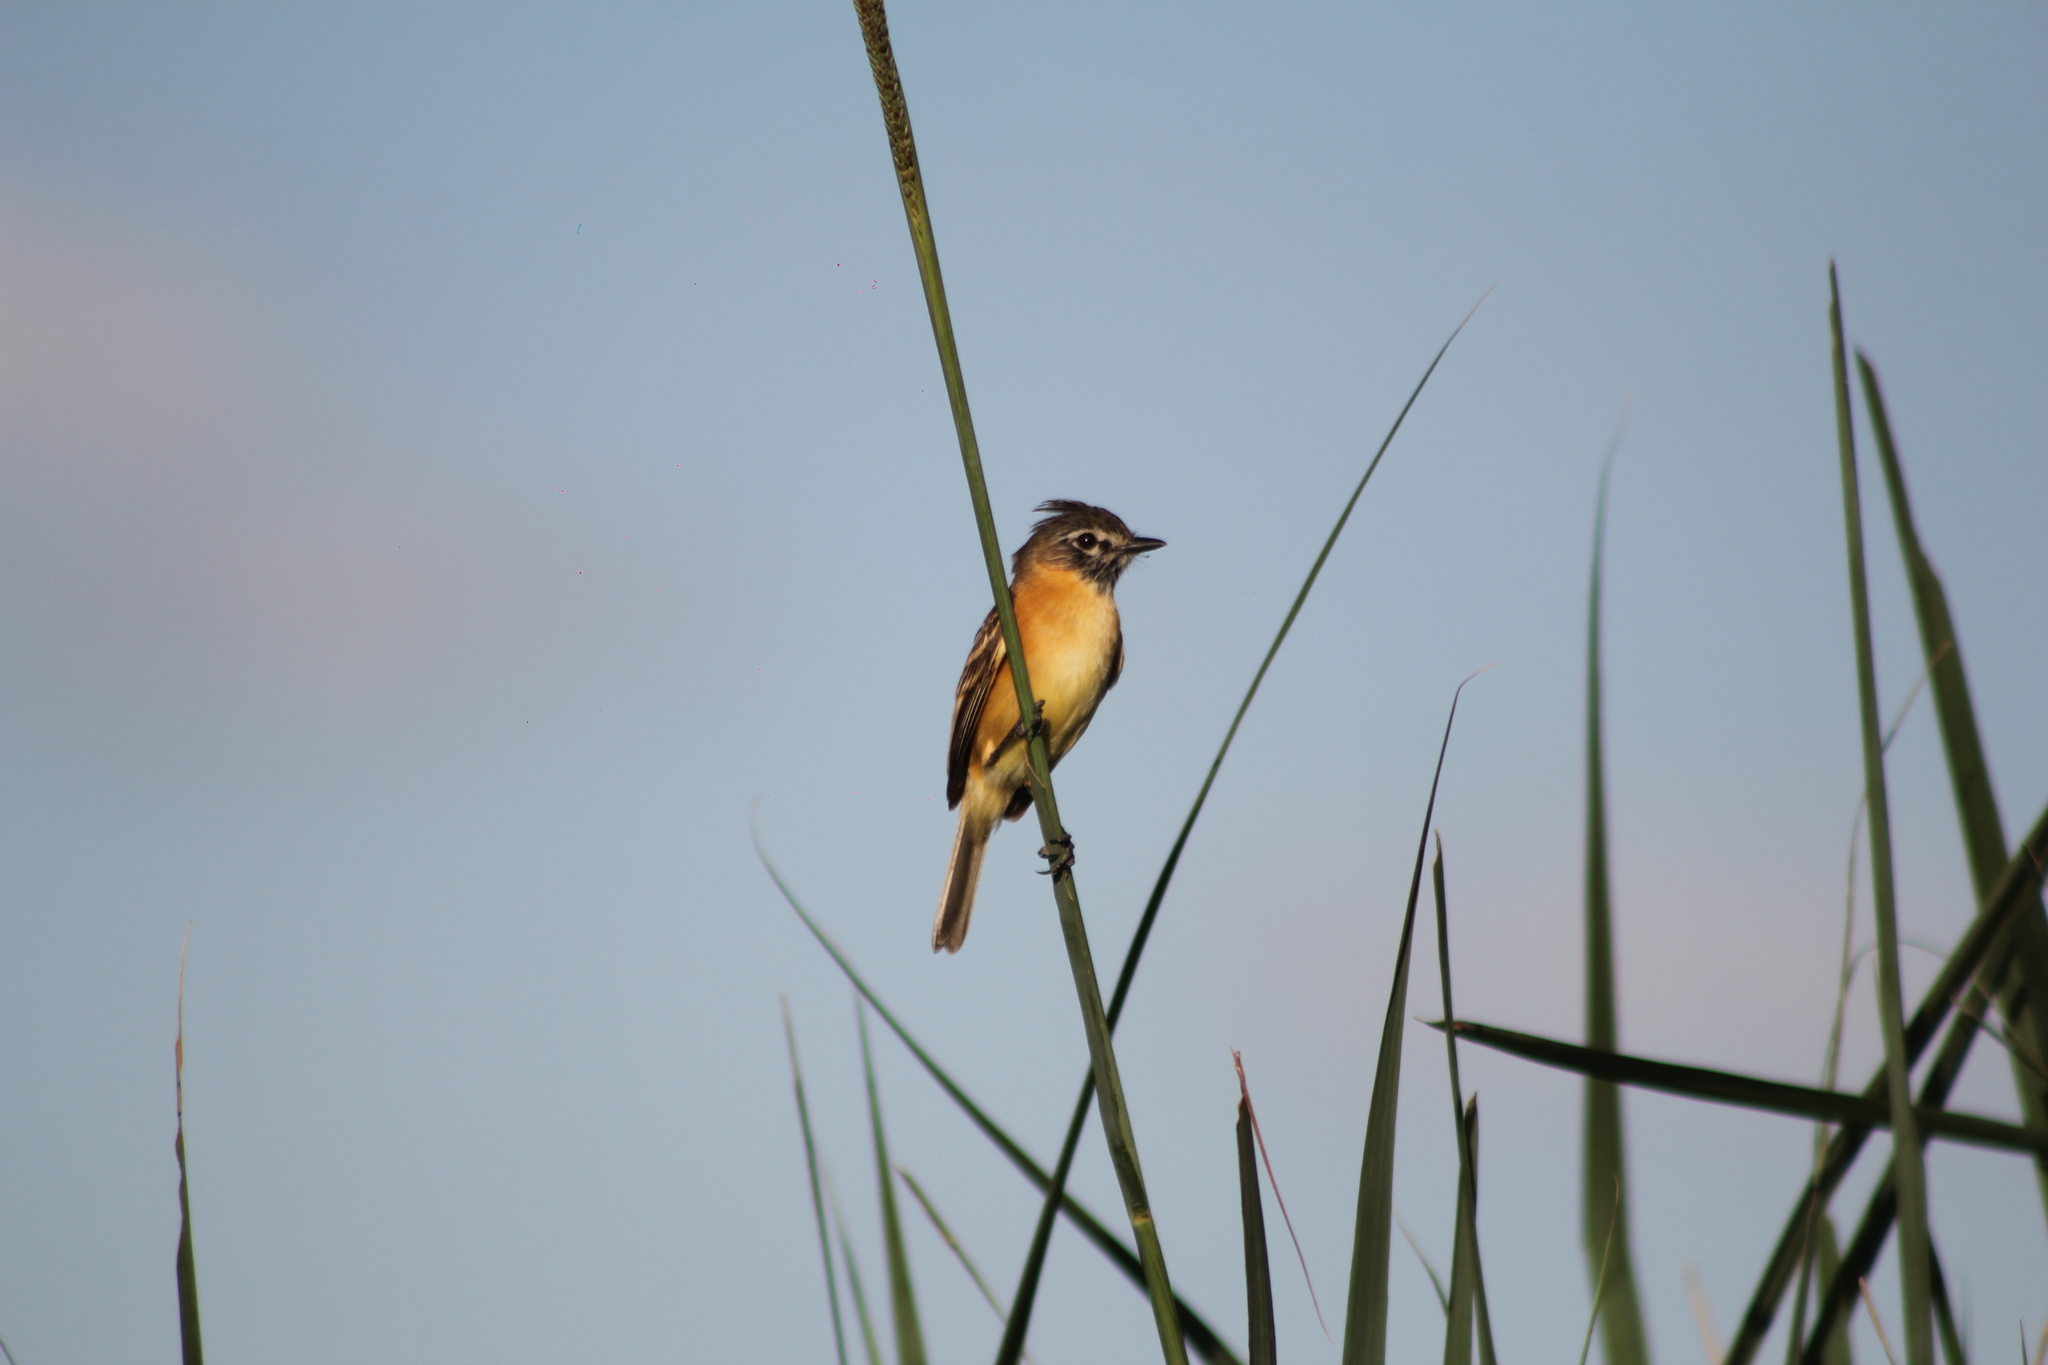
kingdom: Animalia
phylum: Chordata
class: Aves
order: Passeriformes
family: Tyrannidae
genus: Polystictus
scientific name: Polystictus pectoralis
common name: Bearded tachuri
